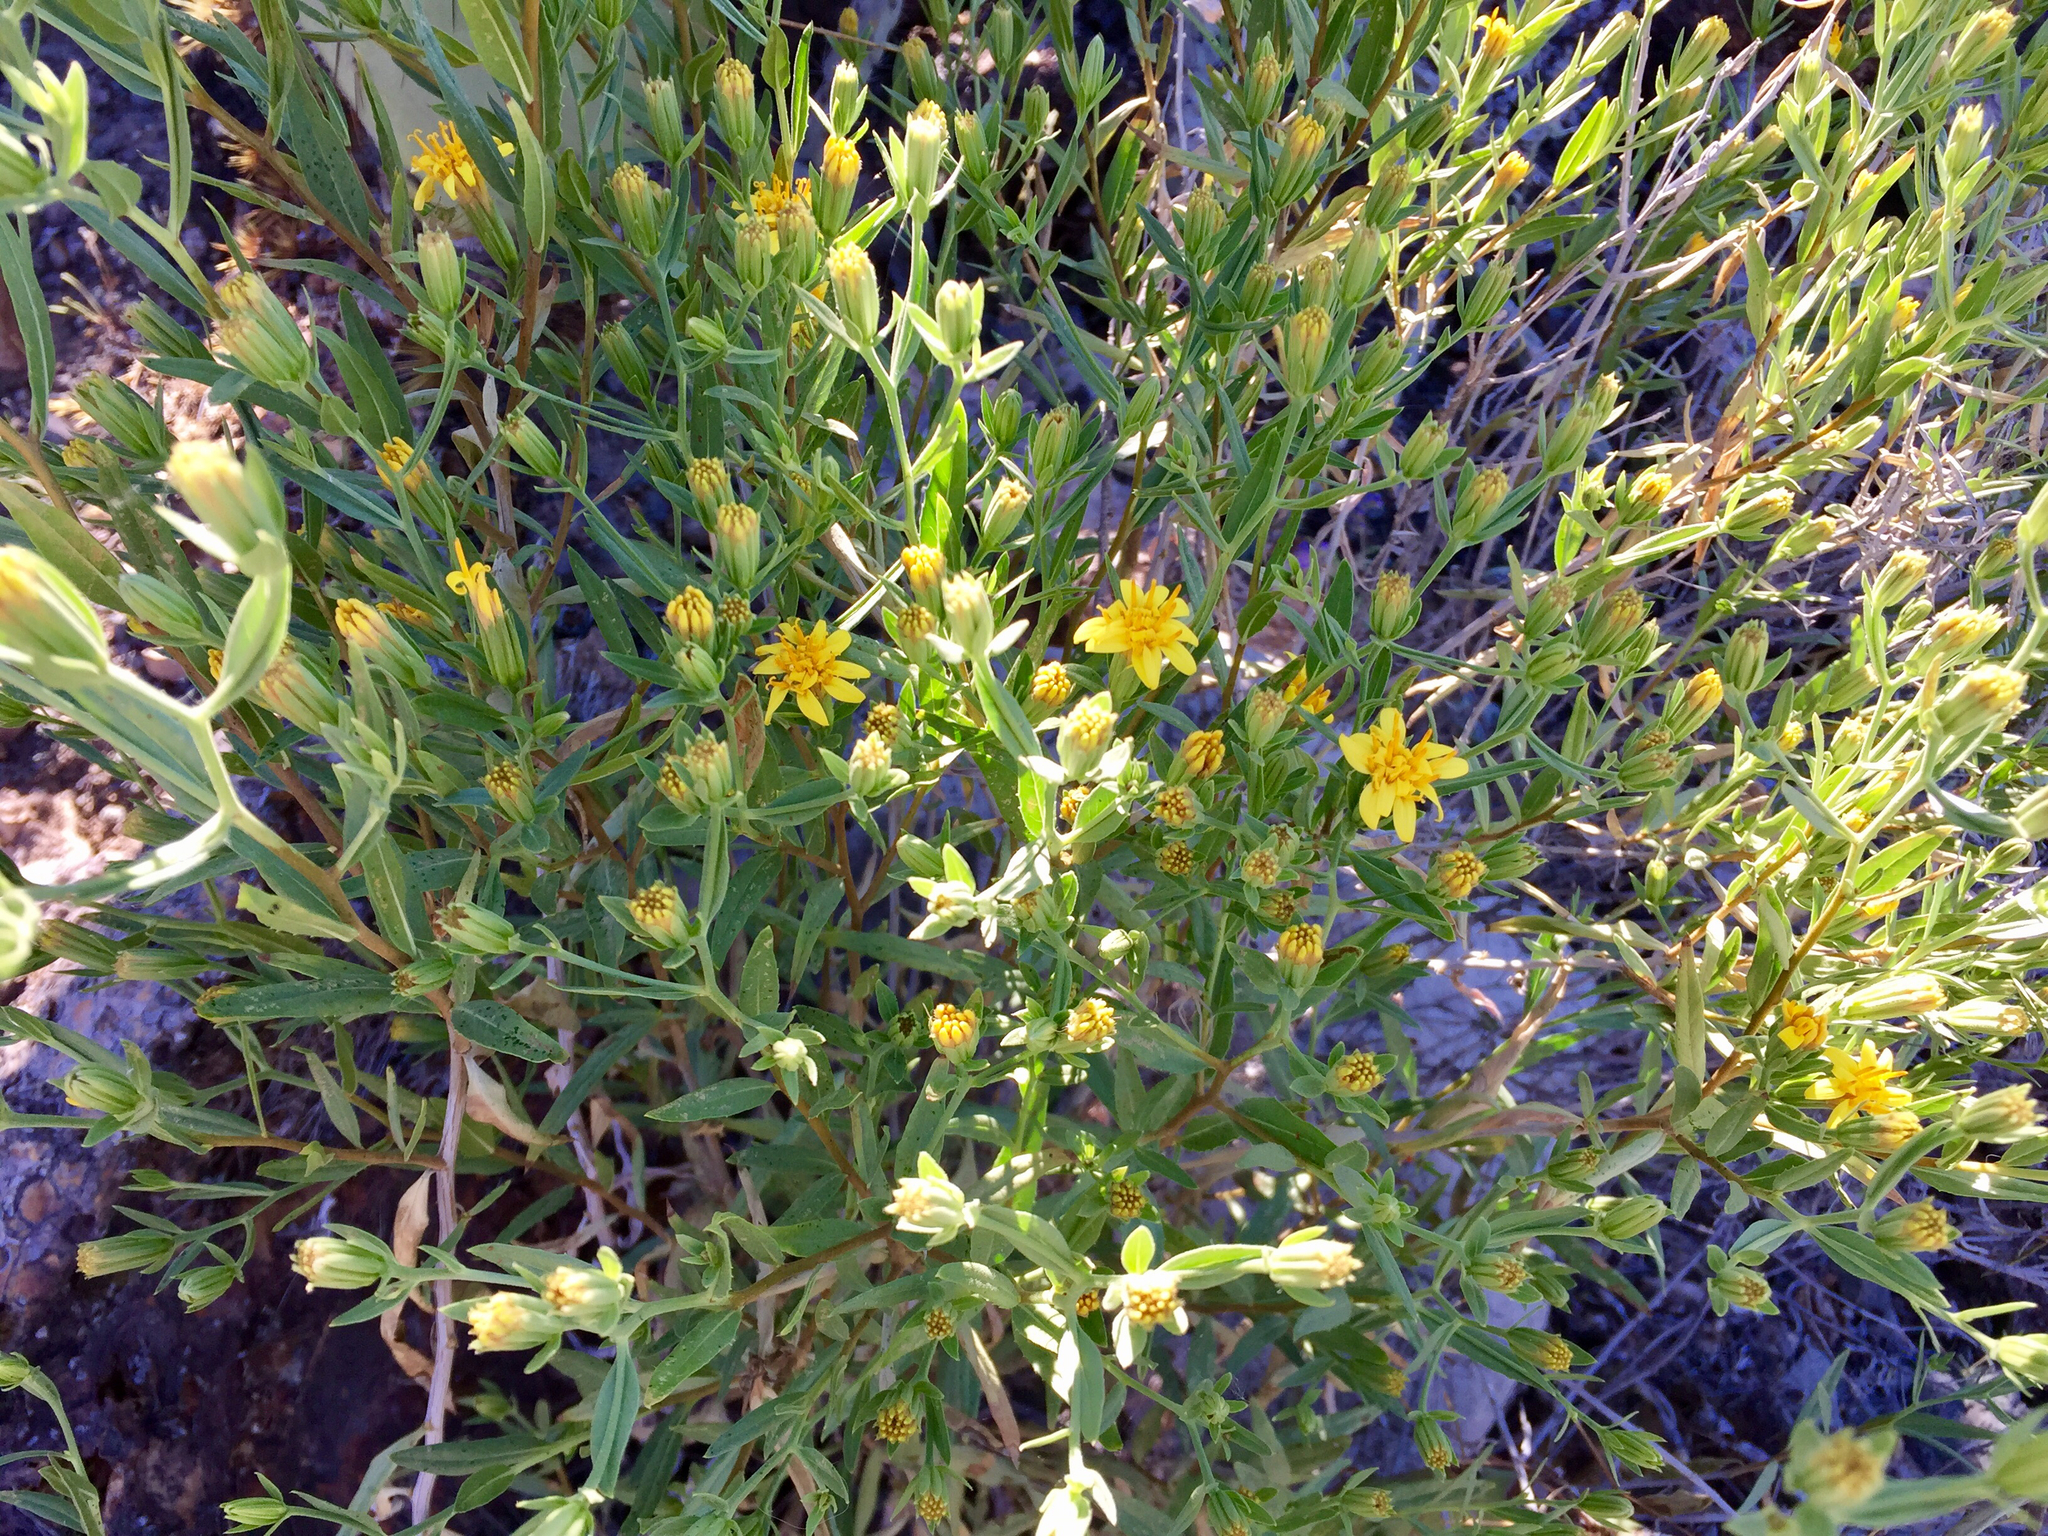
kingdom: Plantae
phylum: Tracheophyta
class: Magnoliopsida
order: Asterales
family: Asteraceae
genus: Trixis
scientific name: Trixis californica
